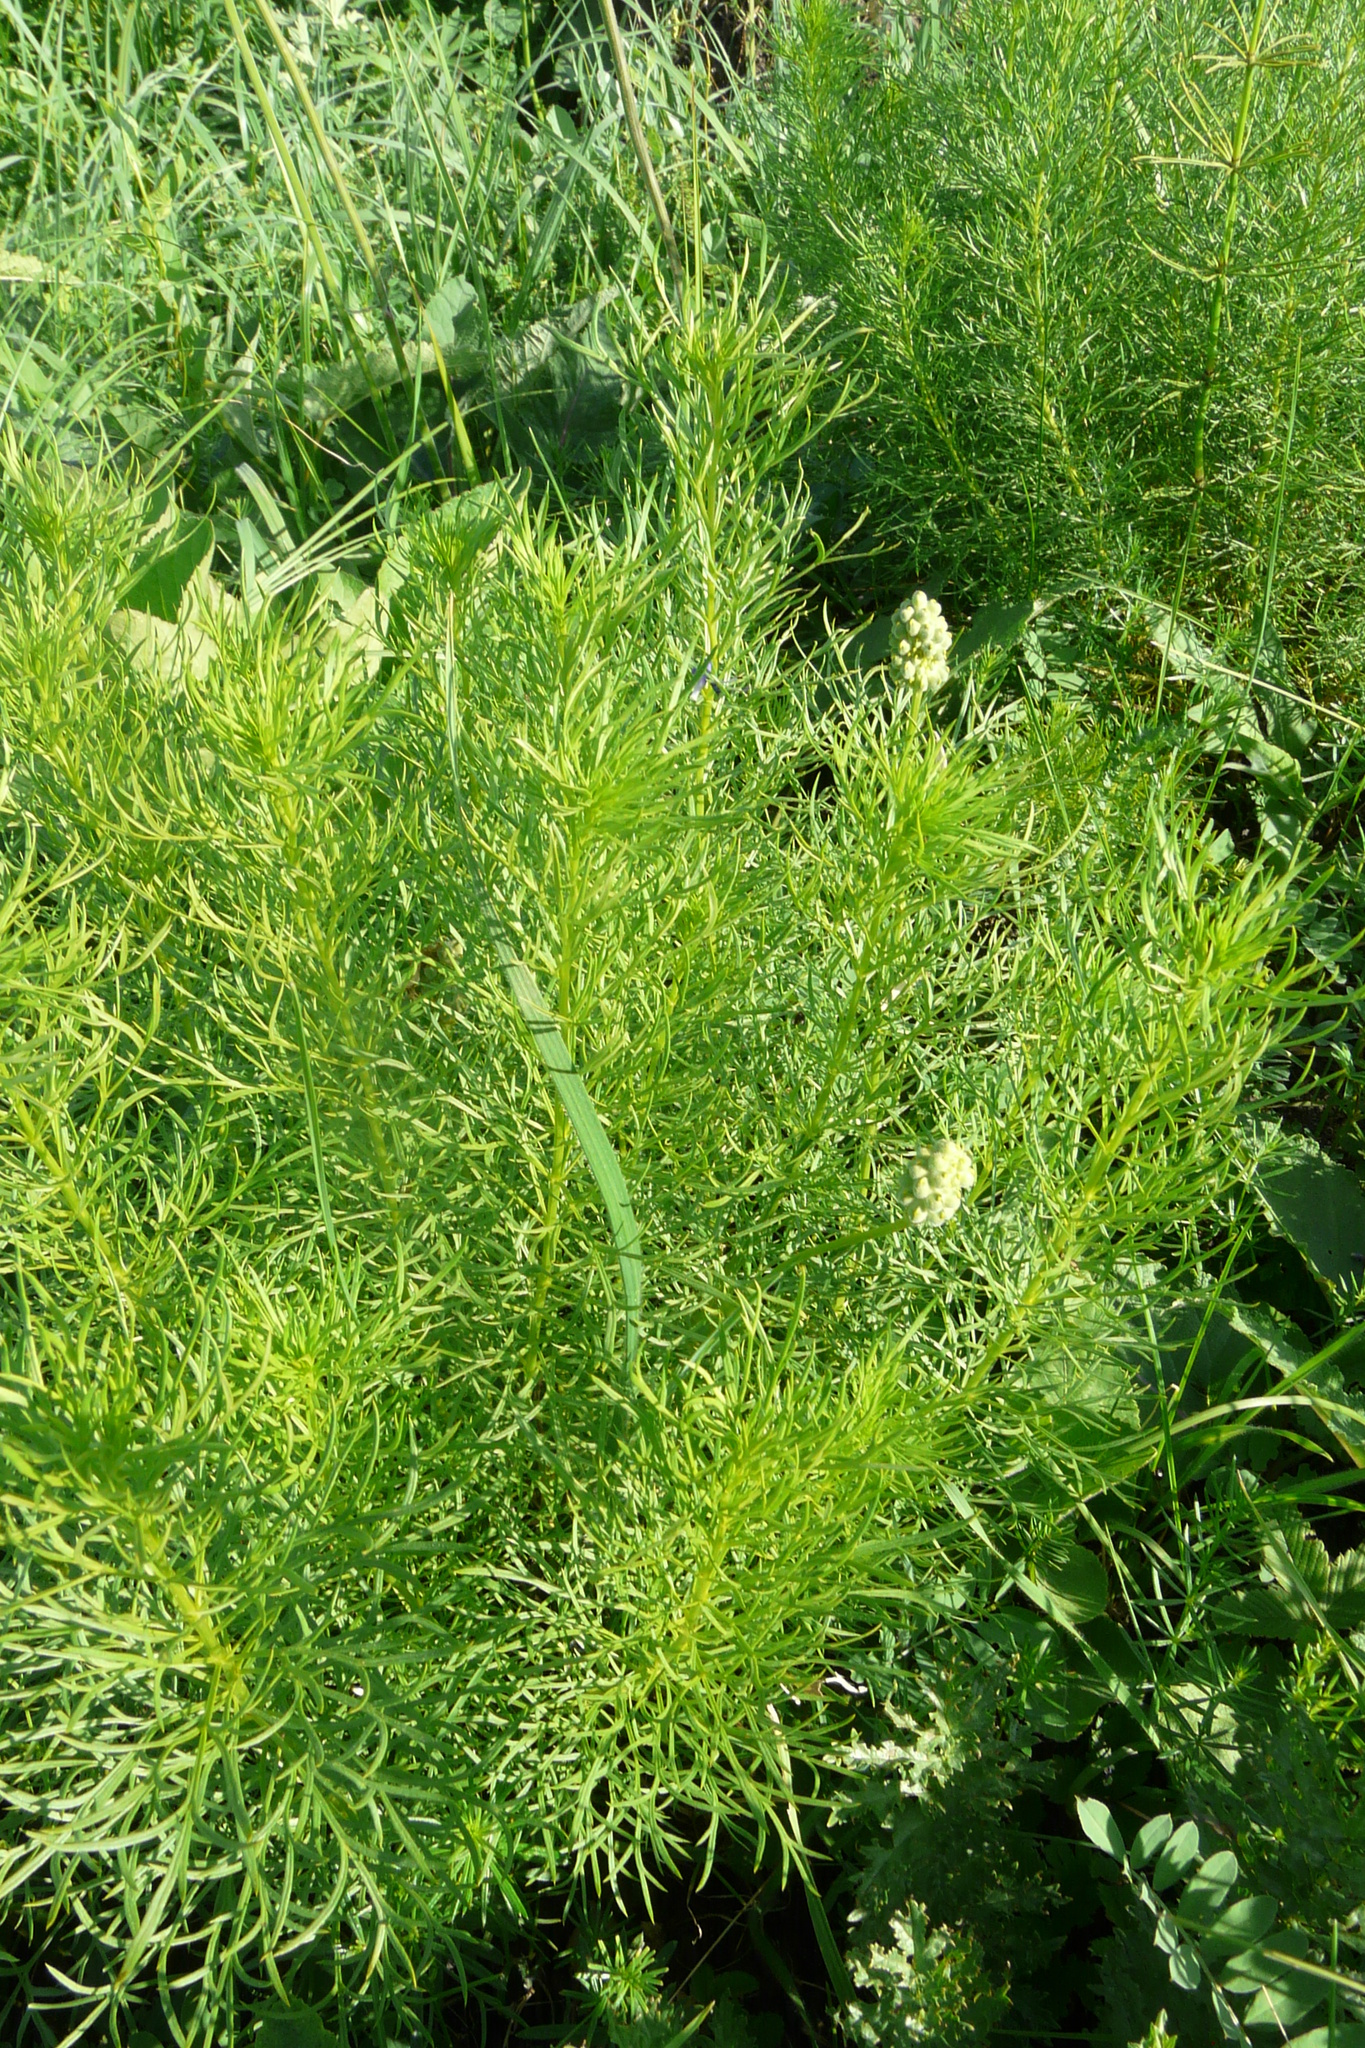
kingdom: Plantae
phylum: Tracheophyta
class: Magnoliopsida
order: Ranunculales
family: Ranunculaceae
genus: Adonis
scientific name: Adonis vernalis
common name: Yellow pheasants-eye
